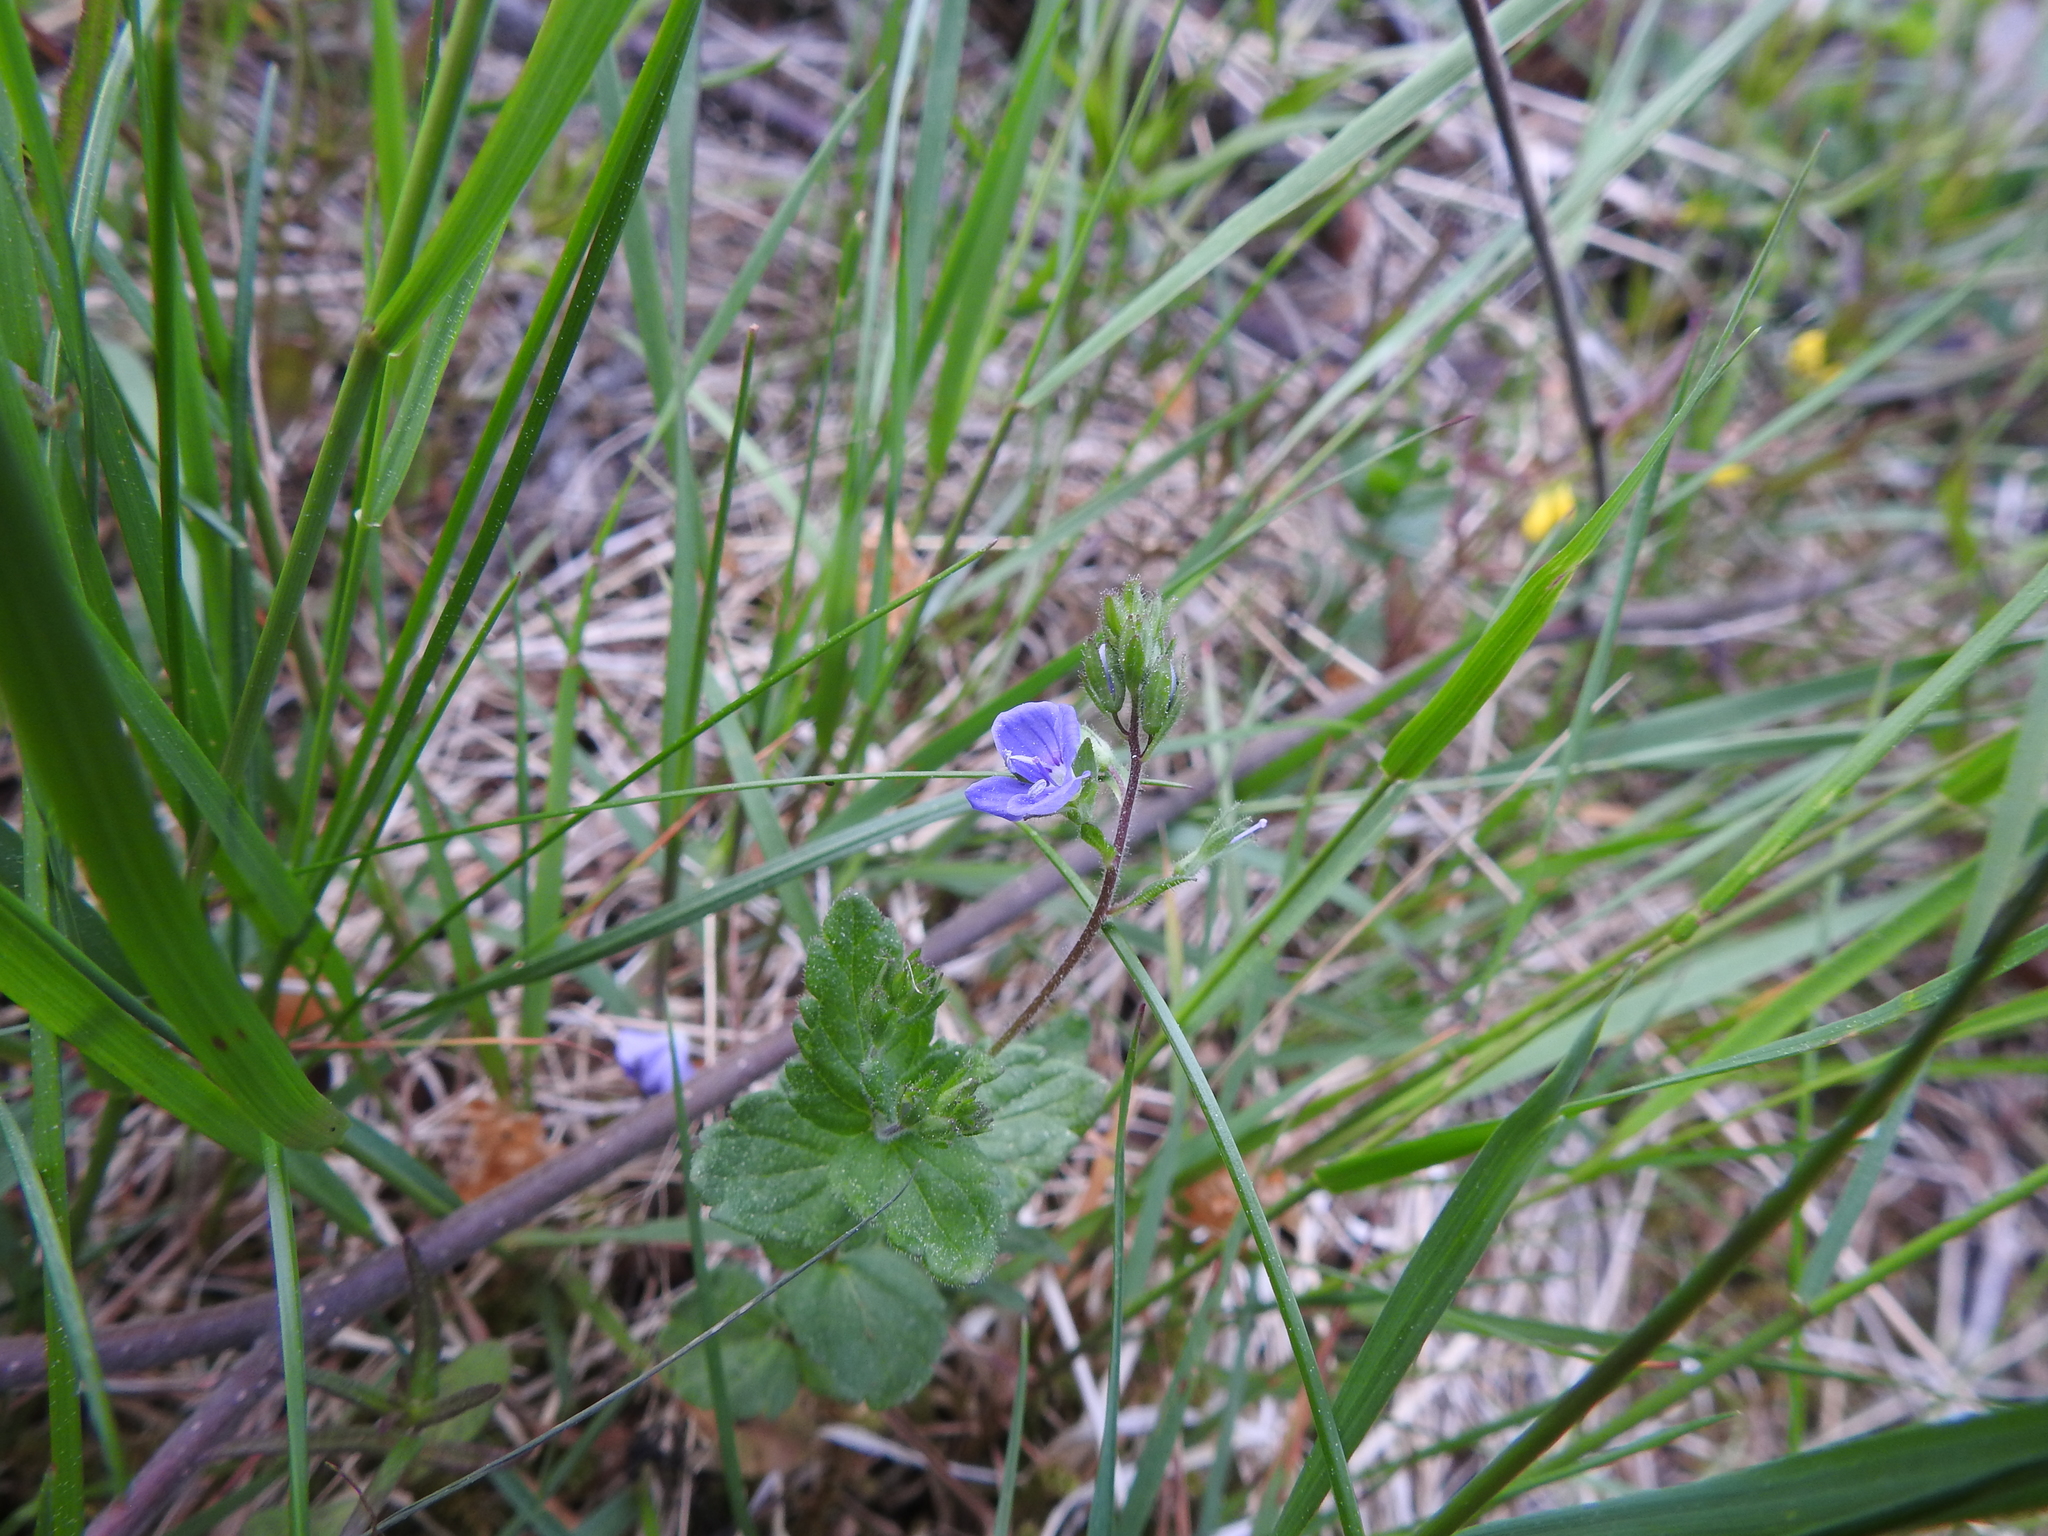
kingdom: Plantae
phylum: Tracheophyta
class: Magnoliopsida
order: Lamiales
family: Plantaginaceae
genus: Veronica
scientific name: Veronica chamaedrys
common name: Germander speedwell
